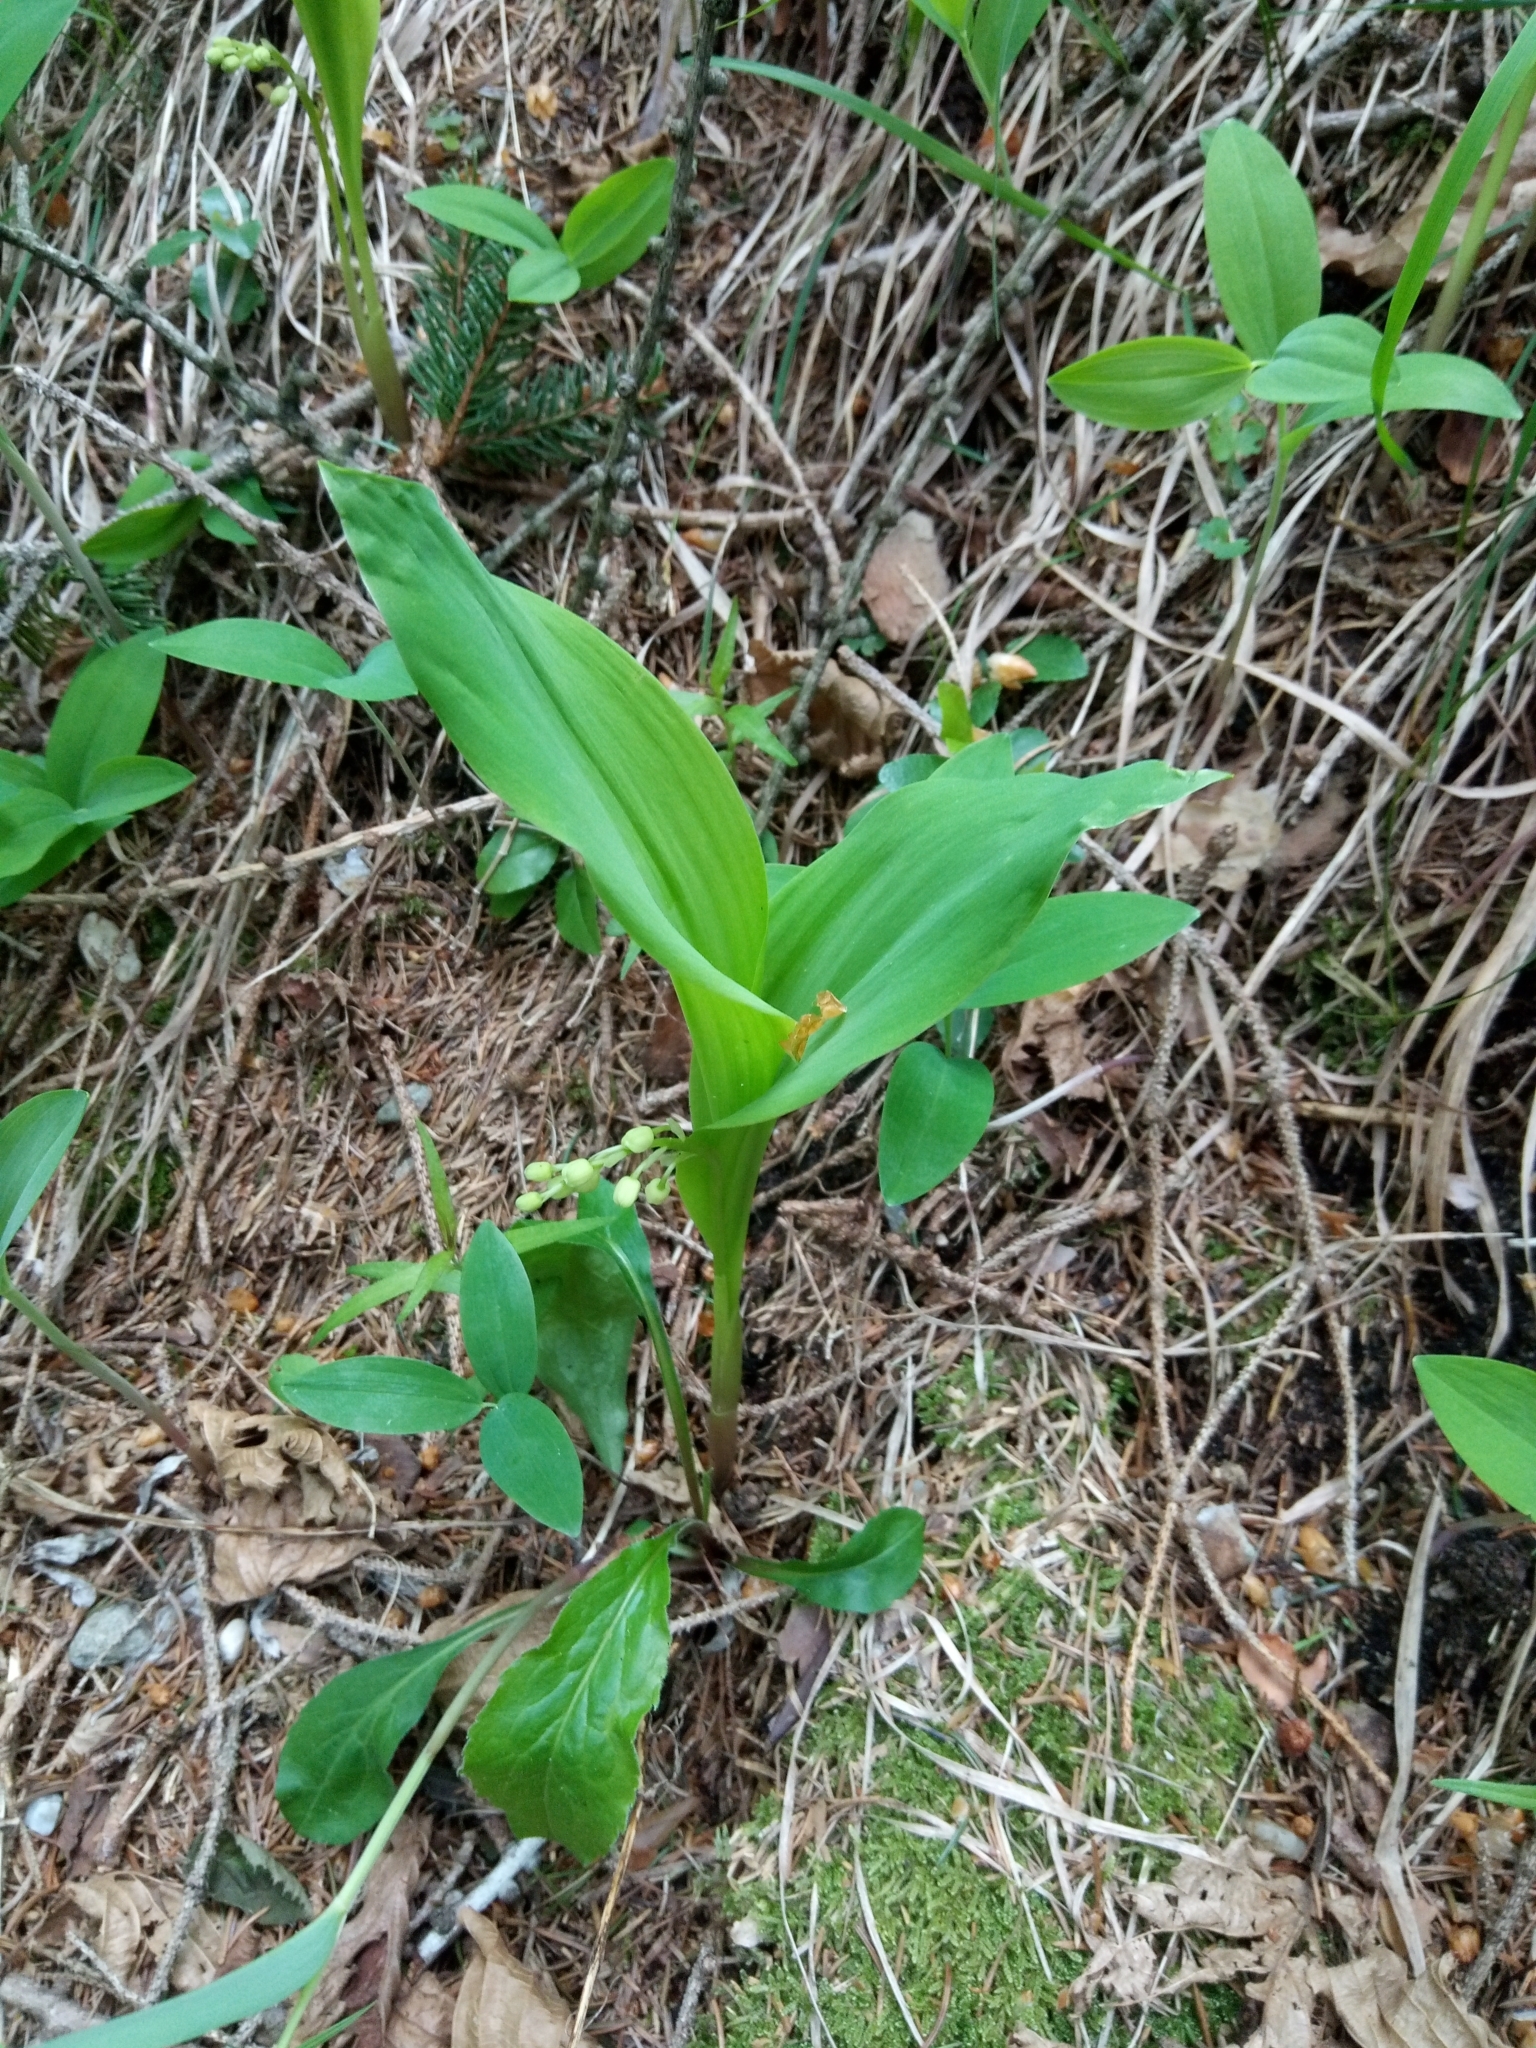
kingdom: Plantae
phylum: Tracheophyta
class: Liliopsida
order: Asparagales
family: Asparagaceae
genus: Convallaria
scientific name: Convallaria majalis
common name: Lily-of-the-valley
